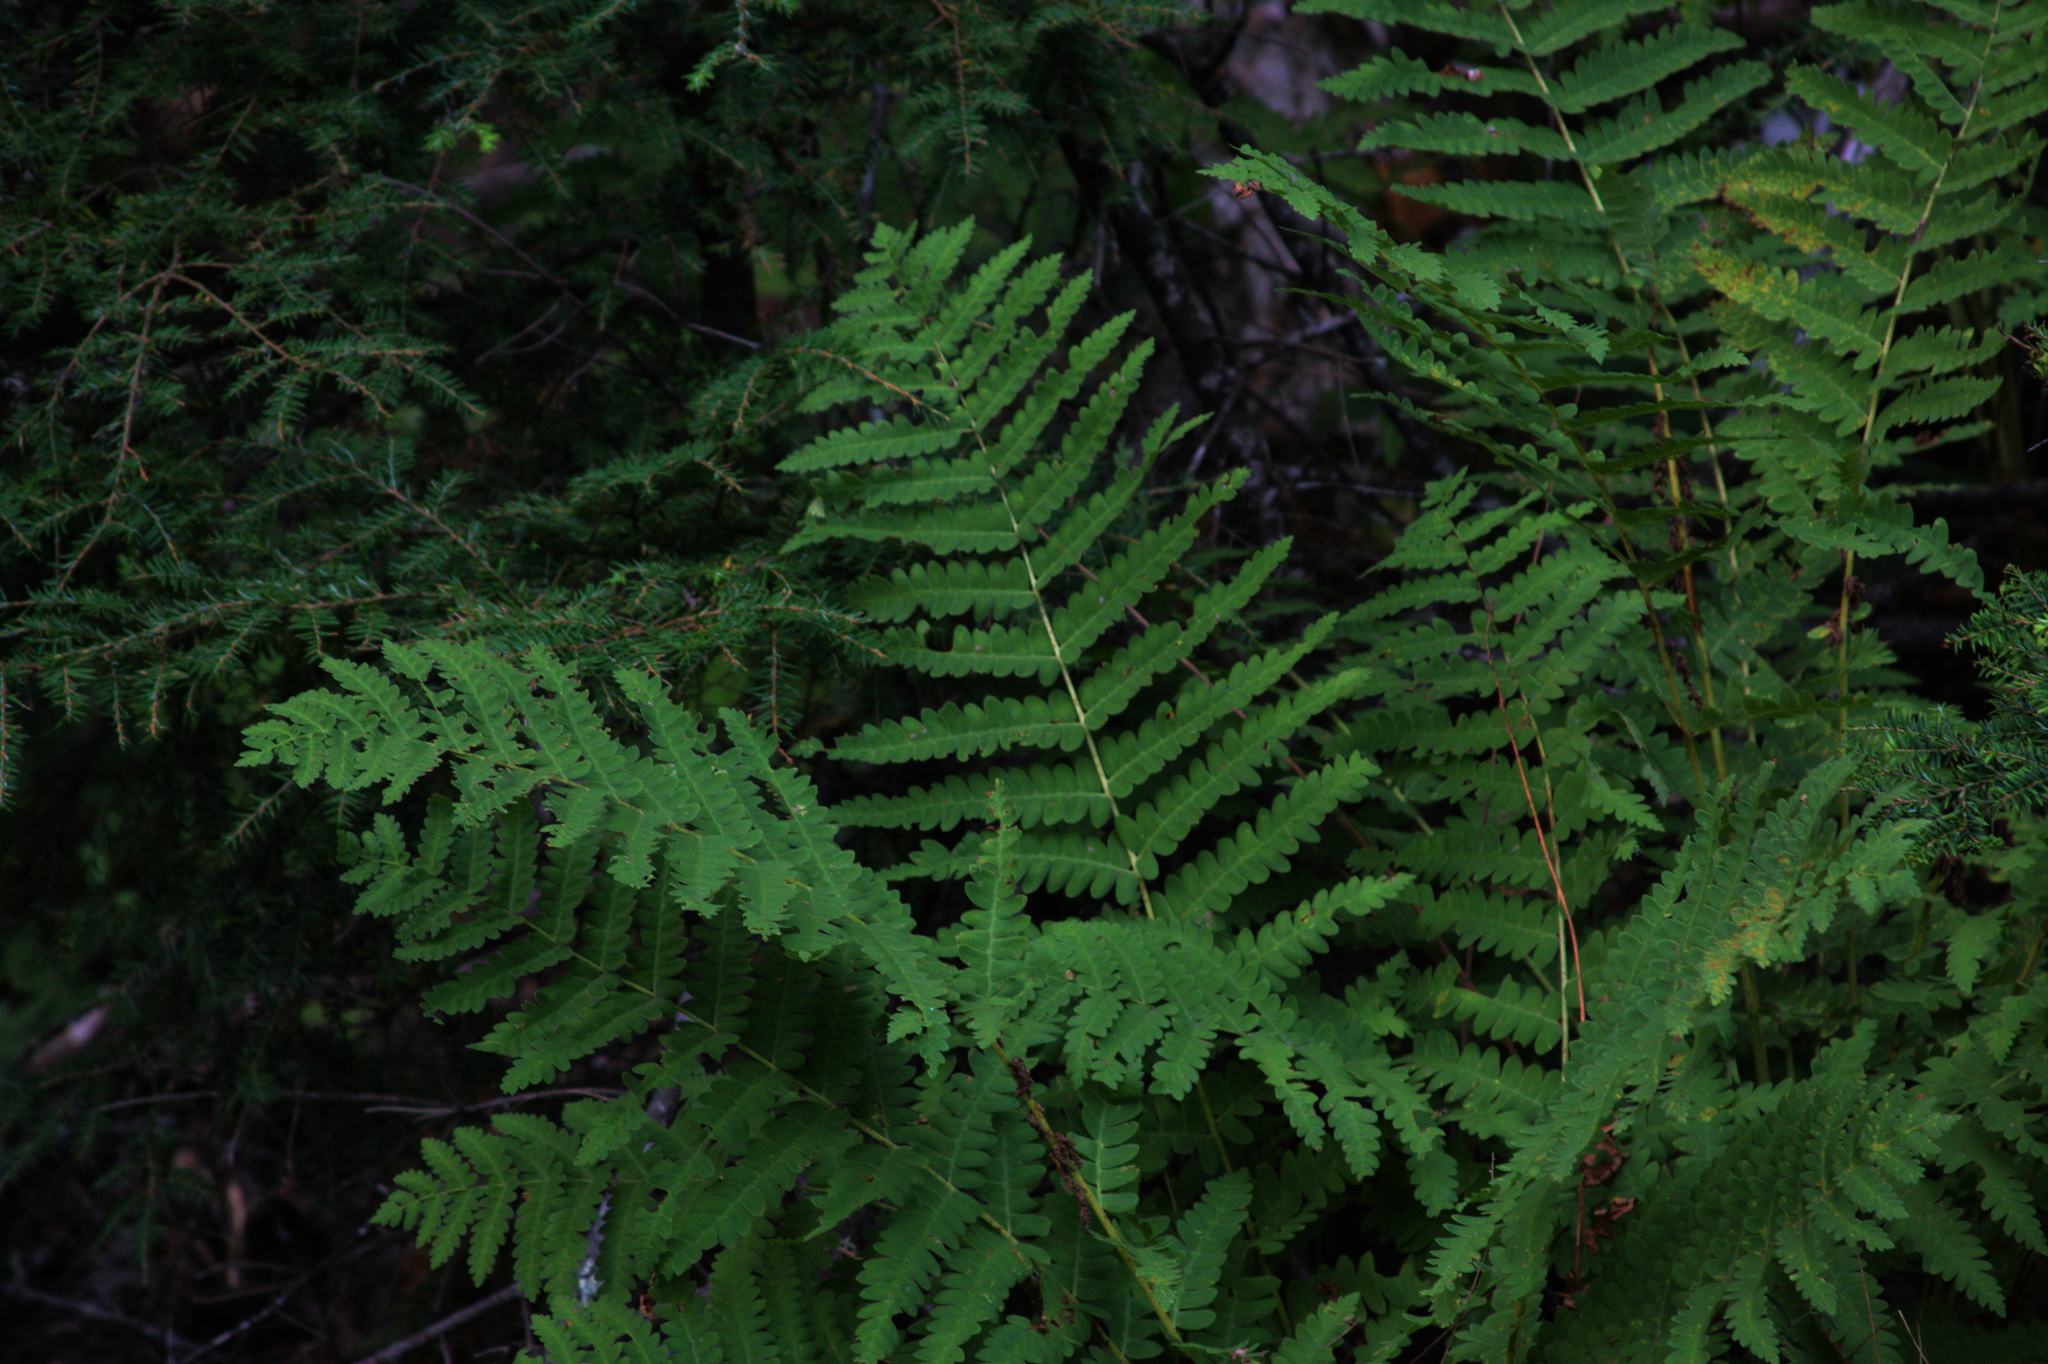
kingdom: Plantae
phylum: Tracheophyta
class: Polypodiopsida
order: Osmundales
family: Osmundaceae
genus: Claytosmunda
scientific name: Claytosmunda claytoniana
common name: Clayton's fern
